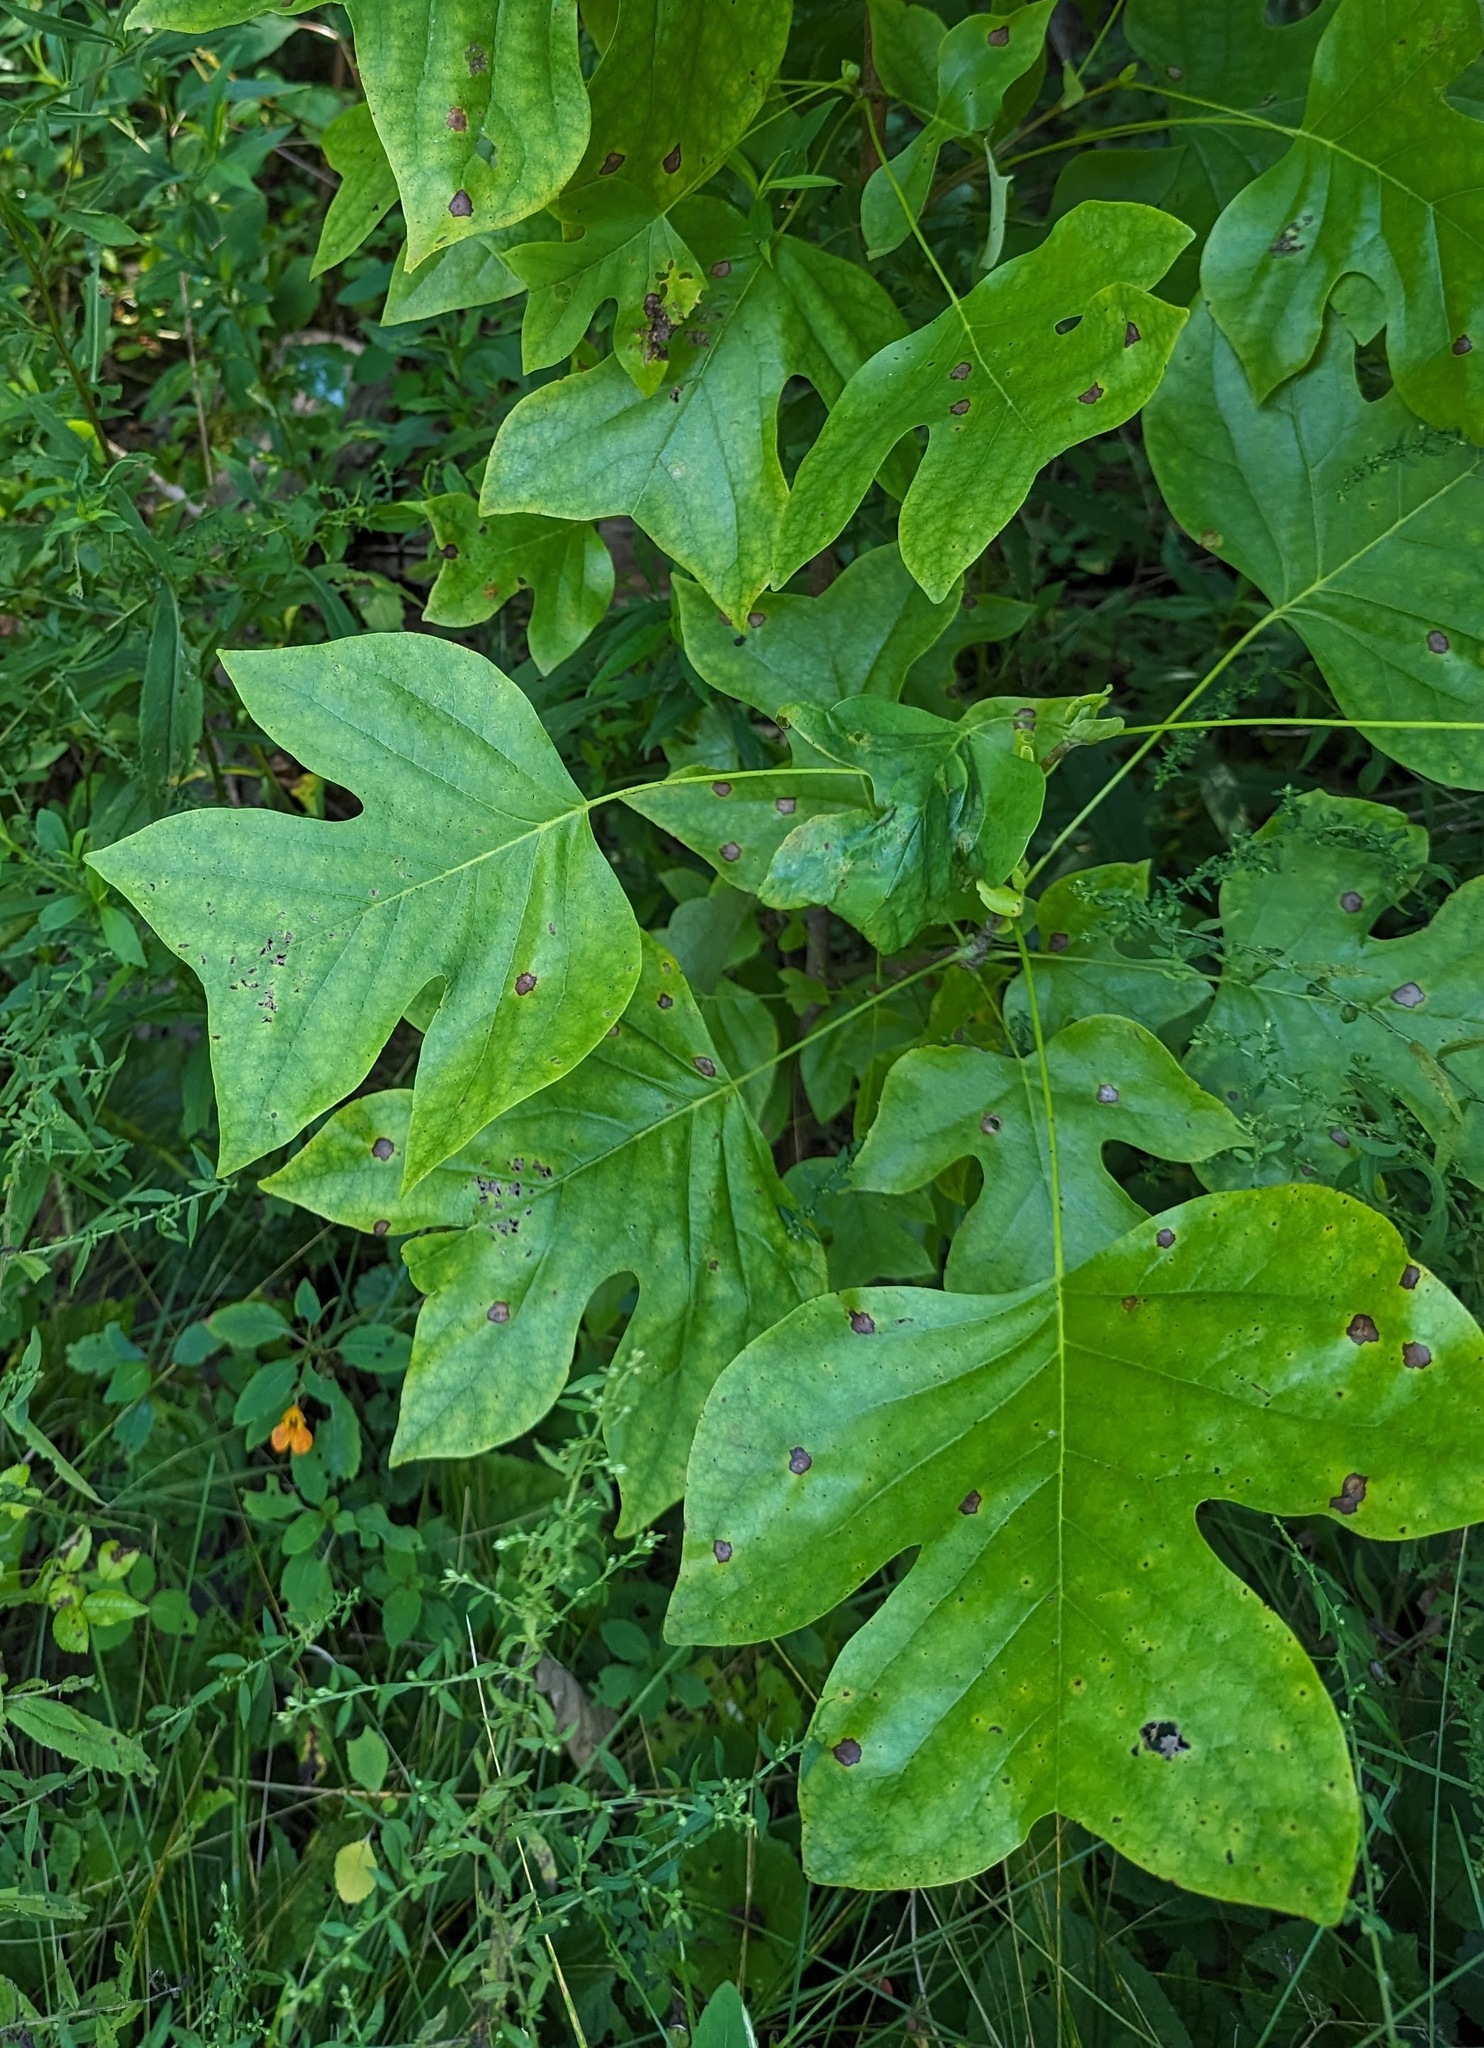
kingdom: Animalia
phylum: Arthropoda
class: Insecta
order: Diptera
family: Cecidomyiidae
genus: Resseliella
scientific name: Resseliella liriodendri
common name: Tulip tree leaf spot gall midge
